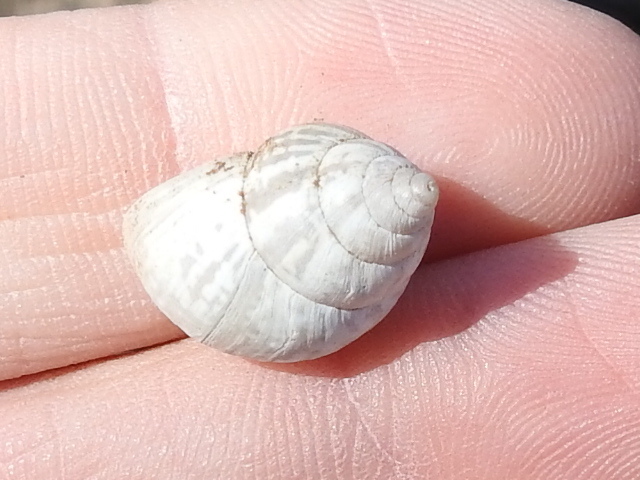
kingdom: Animalia
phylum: Mollusca
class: Gastropoda
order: Stylommatophora
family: Bulimulidae
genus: Rabdotus
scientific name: Rabdotus dealbatus
